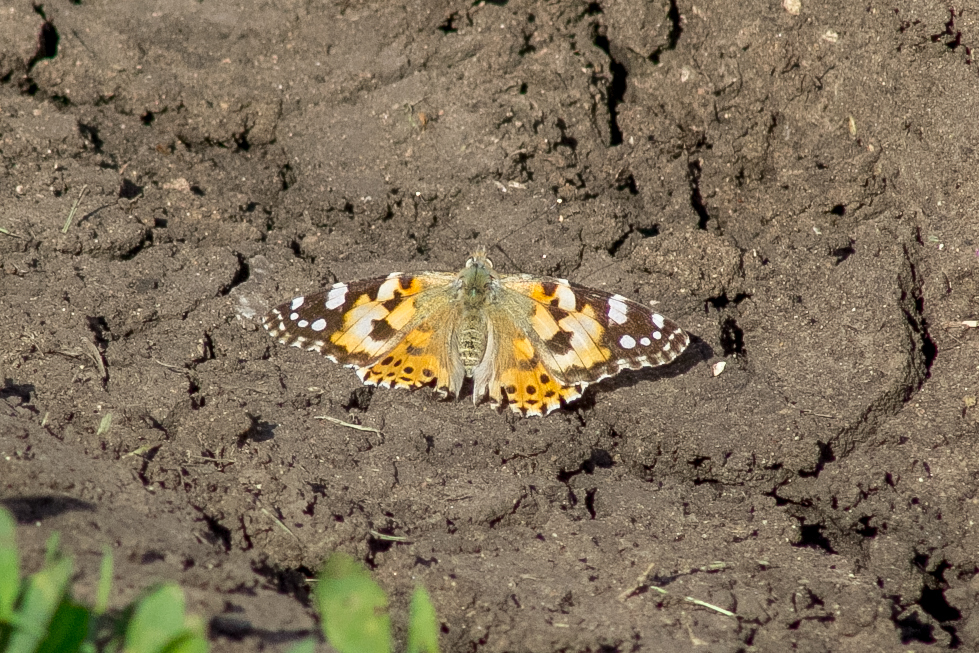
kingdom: Animalia
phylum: Arthropoda
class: Insecta
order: Lepidoptera
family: Nymphalidae
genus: Vanessa
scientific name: Vanessa cardui
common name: Painted lady
